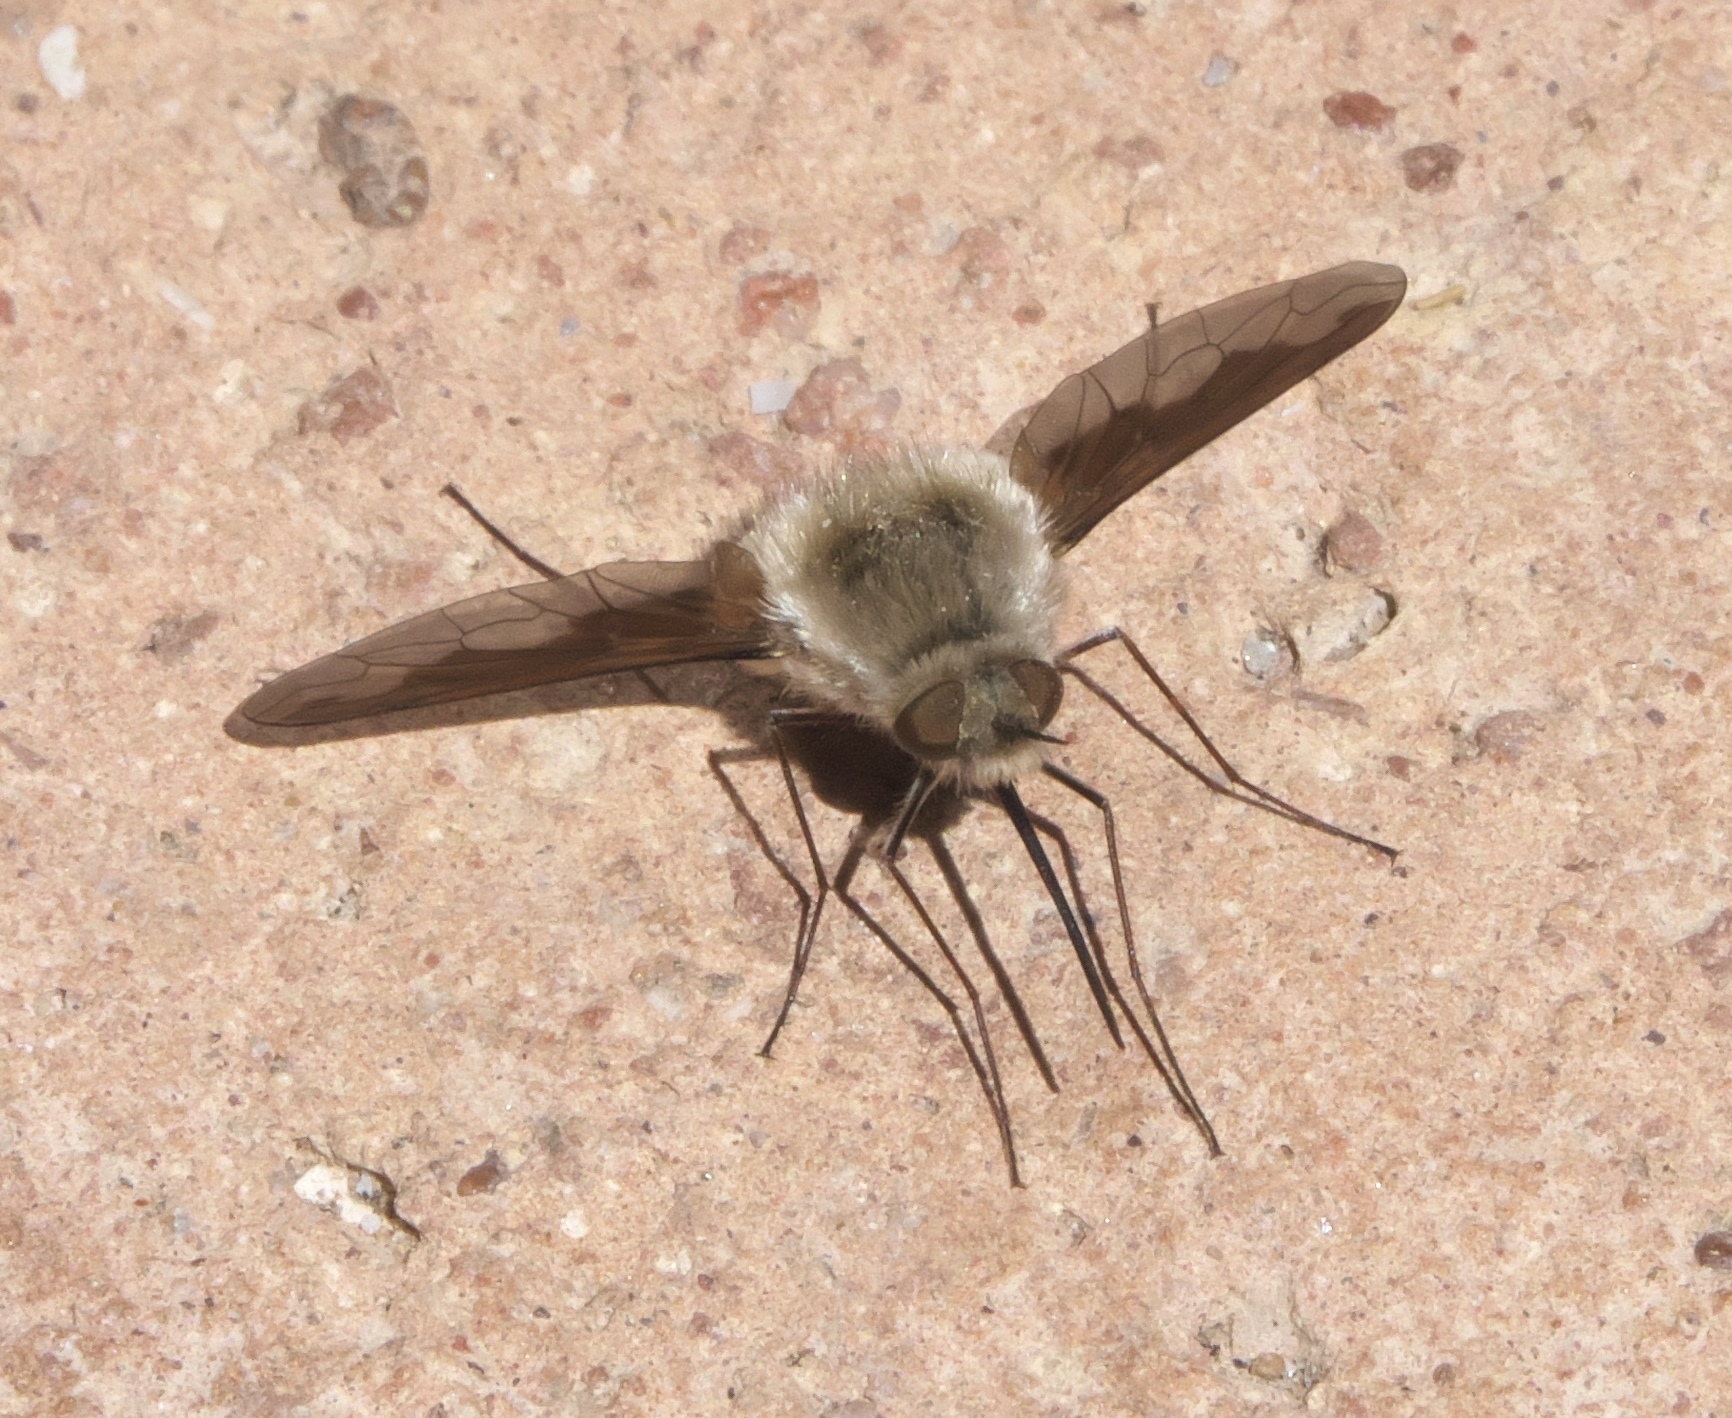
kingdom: Animalia
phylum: Arthropoda
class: Insecta
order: Diptera
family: Bombyliidae
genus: Bombylius
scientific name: Bombylius major
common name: Bee fly
